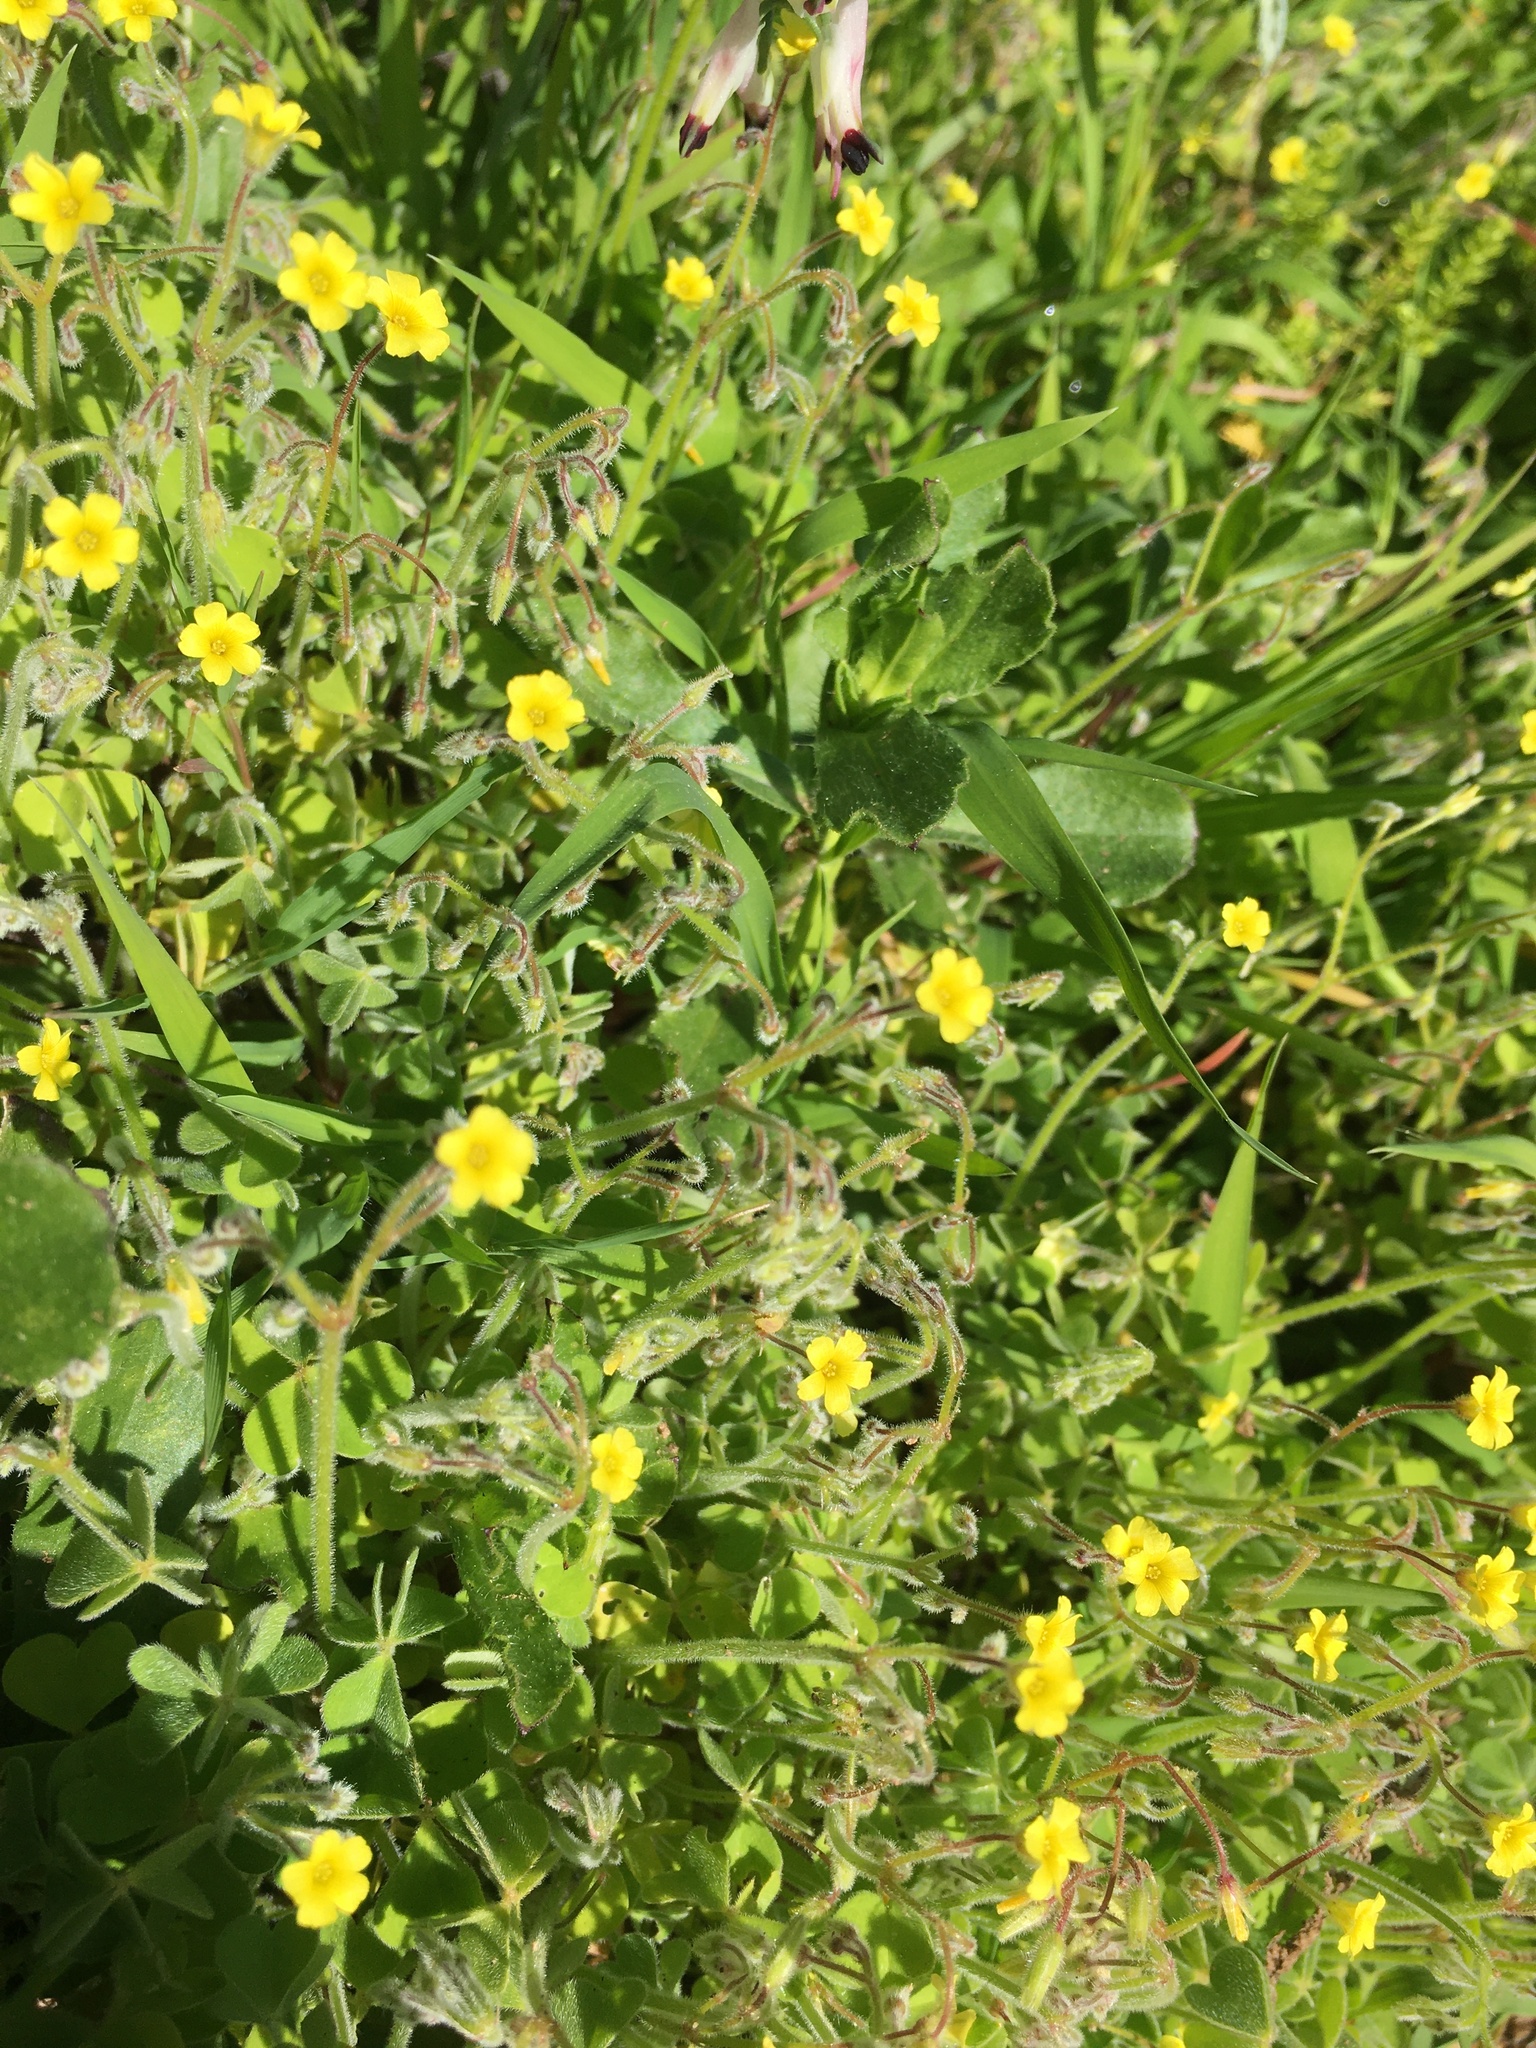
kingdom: Plantae
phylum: Tracheophyta
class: Magnoliopsida
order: Oxalidales
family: Oxalidaceae
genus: Oxalis
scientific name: Oxalis laxa
